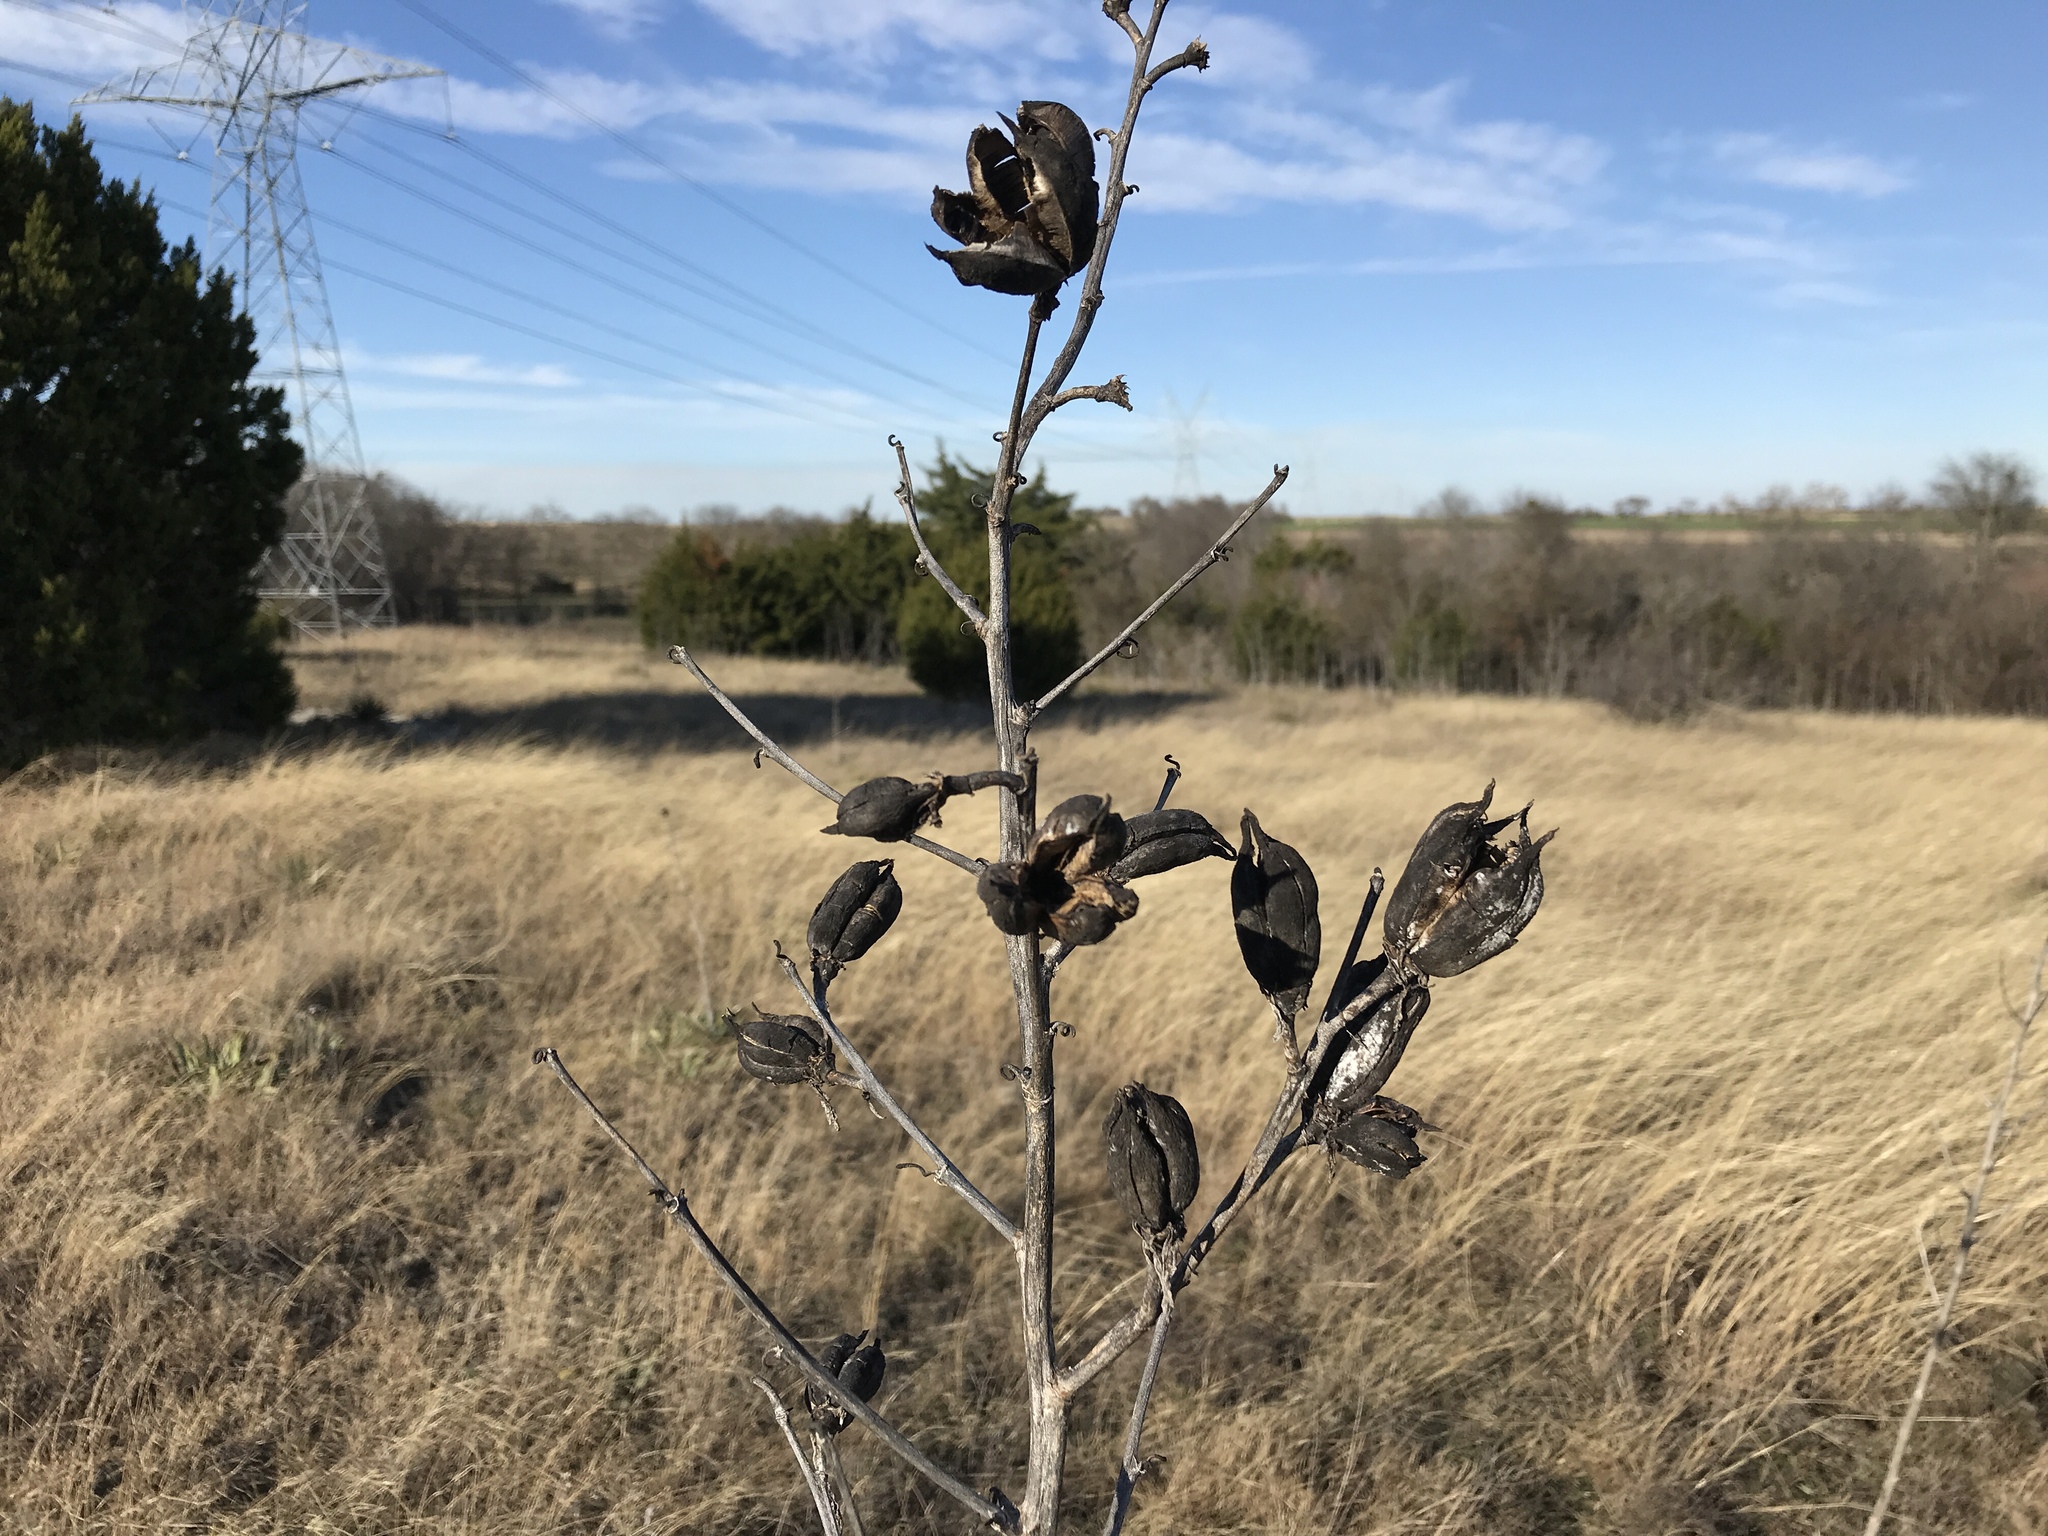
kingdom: Plantae
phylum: Tracheophyta
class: Liliopsida
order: Asparagales
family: Asparagaceae
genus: Yucca
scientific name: Yucca pallida
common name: Pale leaf yucca
